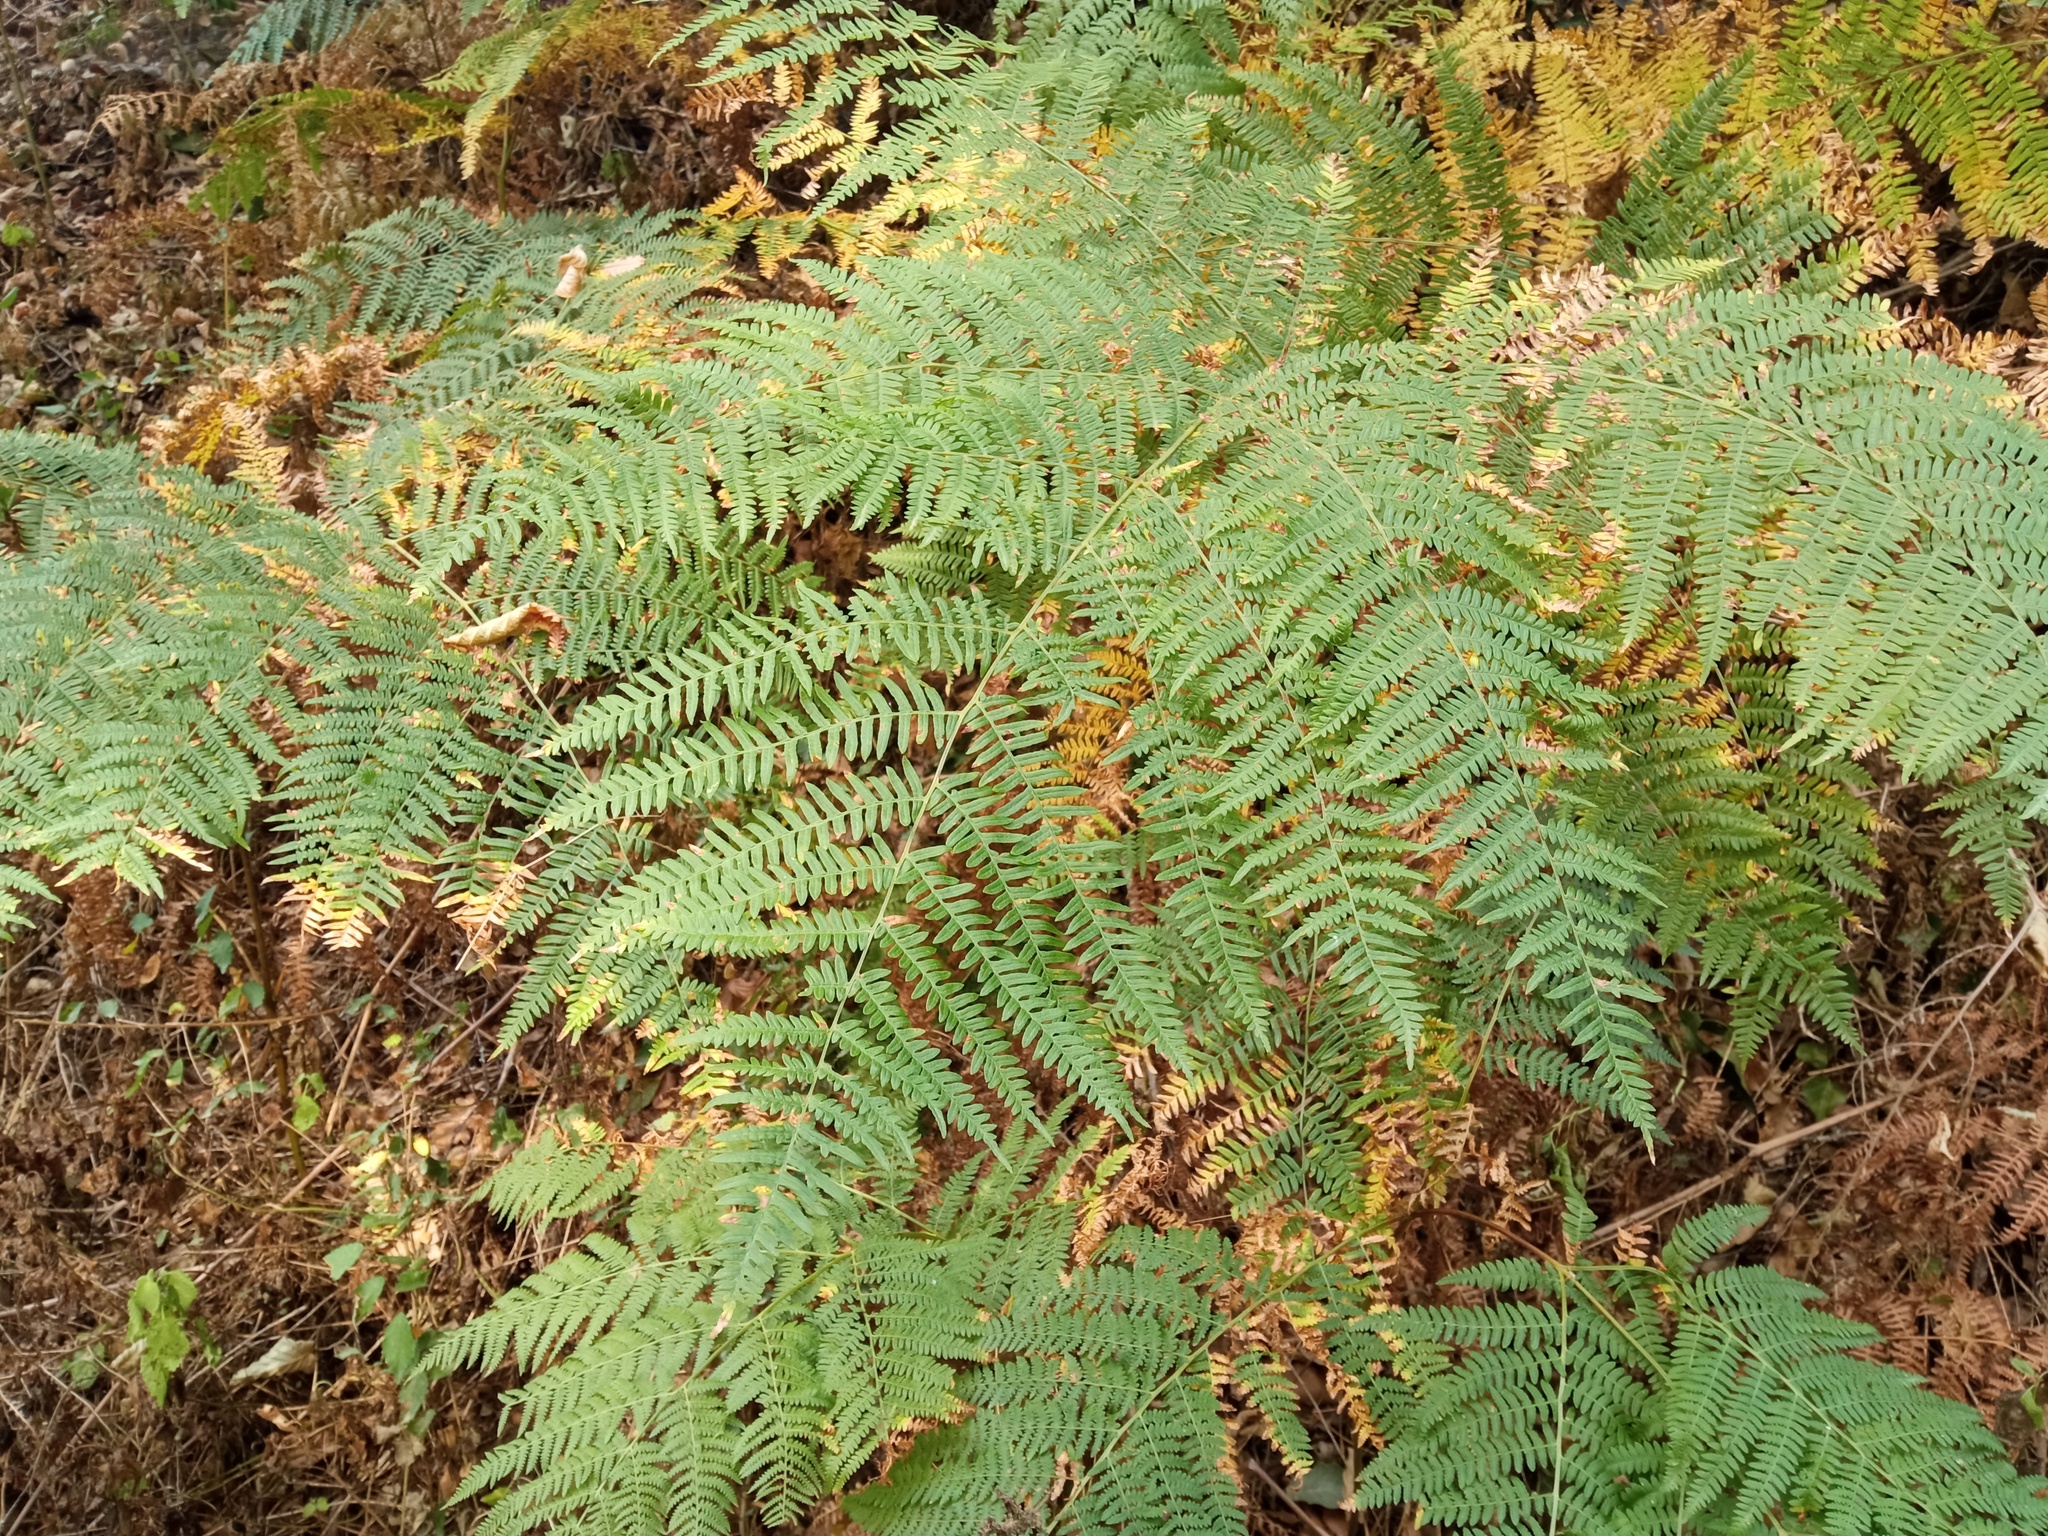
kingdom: Plantae
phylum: Tracheophyta
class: Polypodiopsida
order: Polypodiales
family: Dennstaedtiaceae
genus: Pteridium
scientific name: Pteridium aquilinum
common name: Bracken
